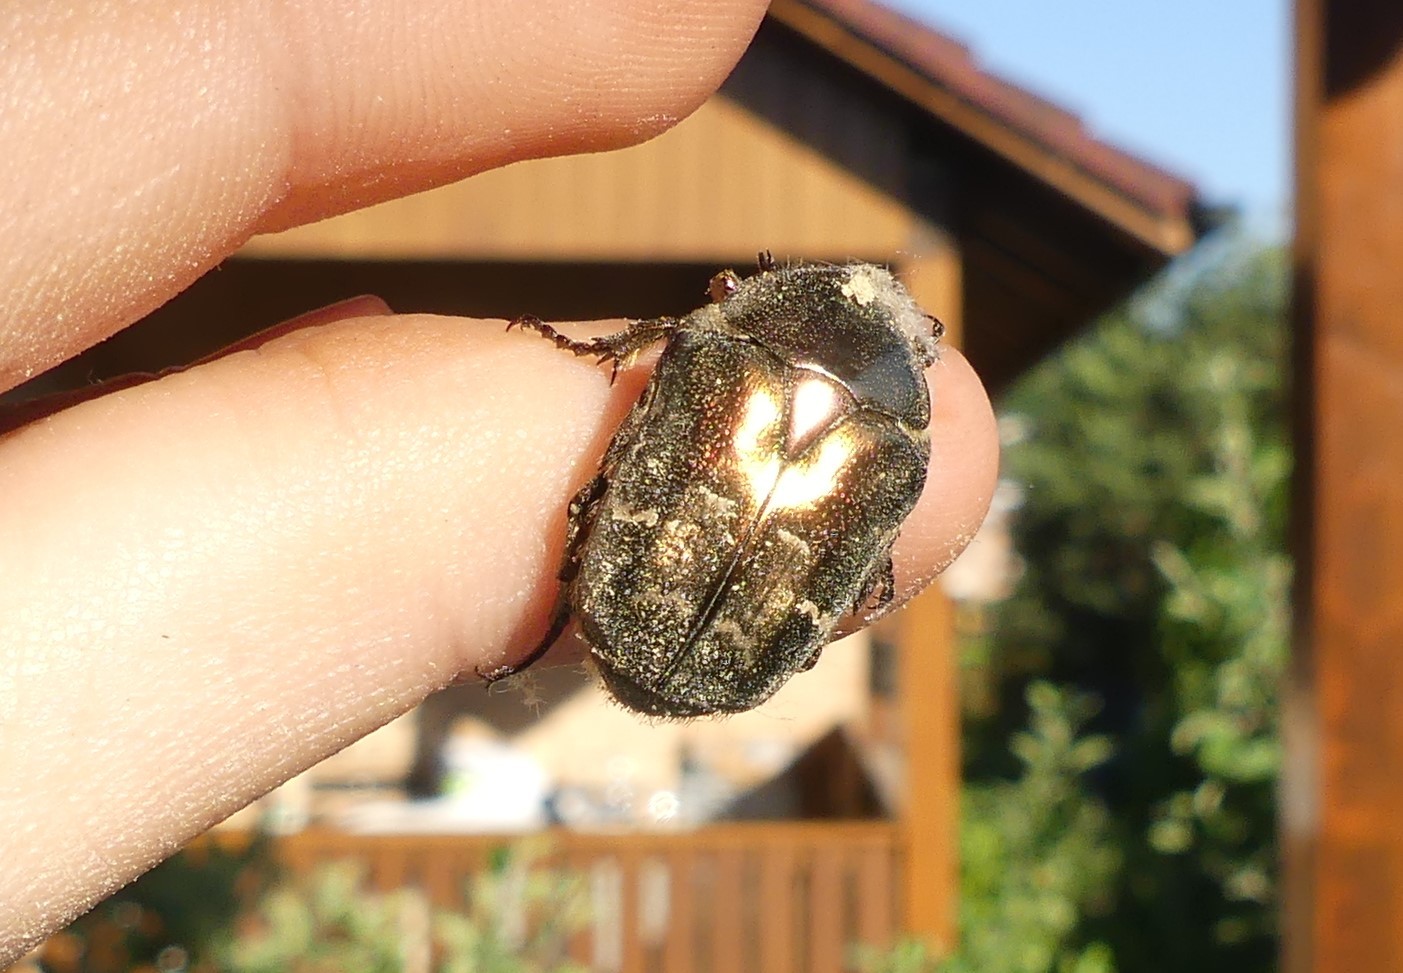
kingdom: Animalia
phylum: Arthropoda
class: Insecta
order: Coleoptera
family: Scarabaeidae
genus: Protaetia
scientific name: Protaetia cuprea
